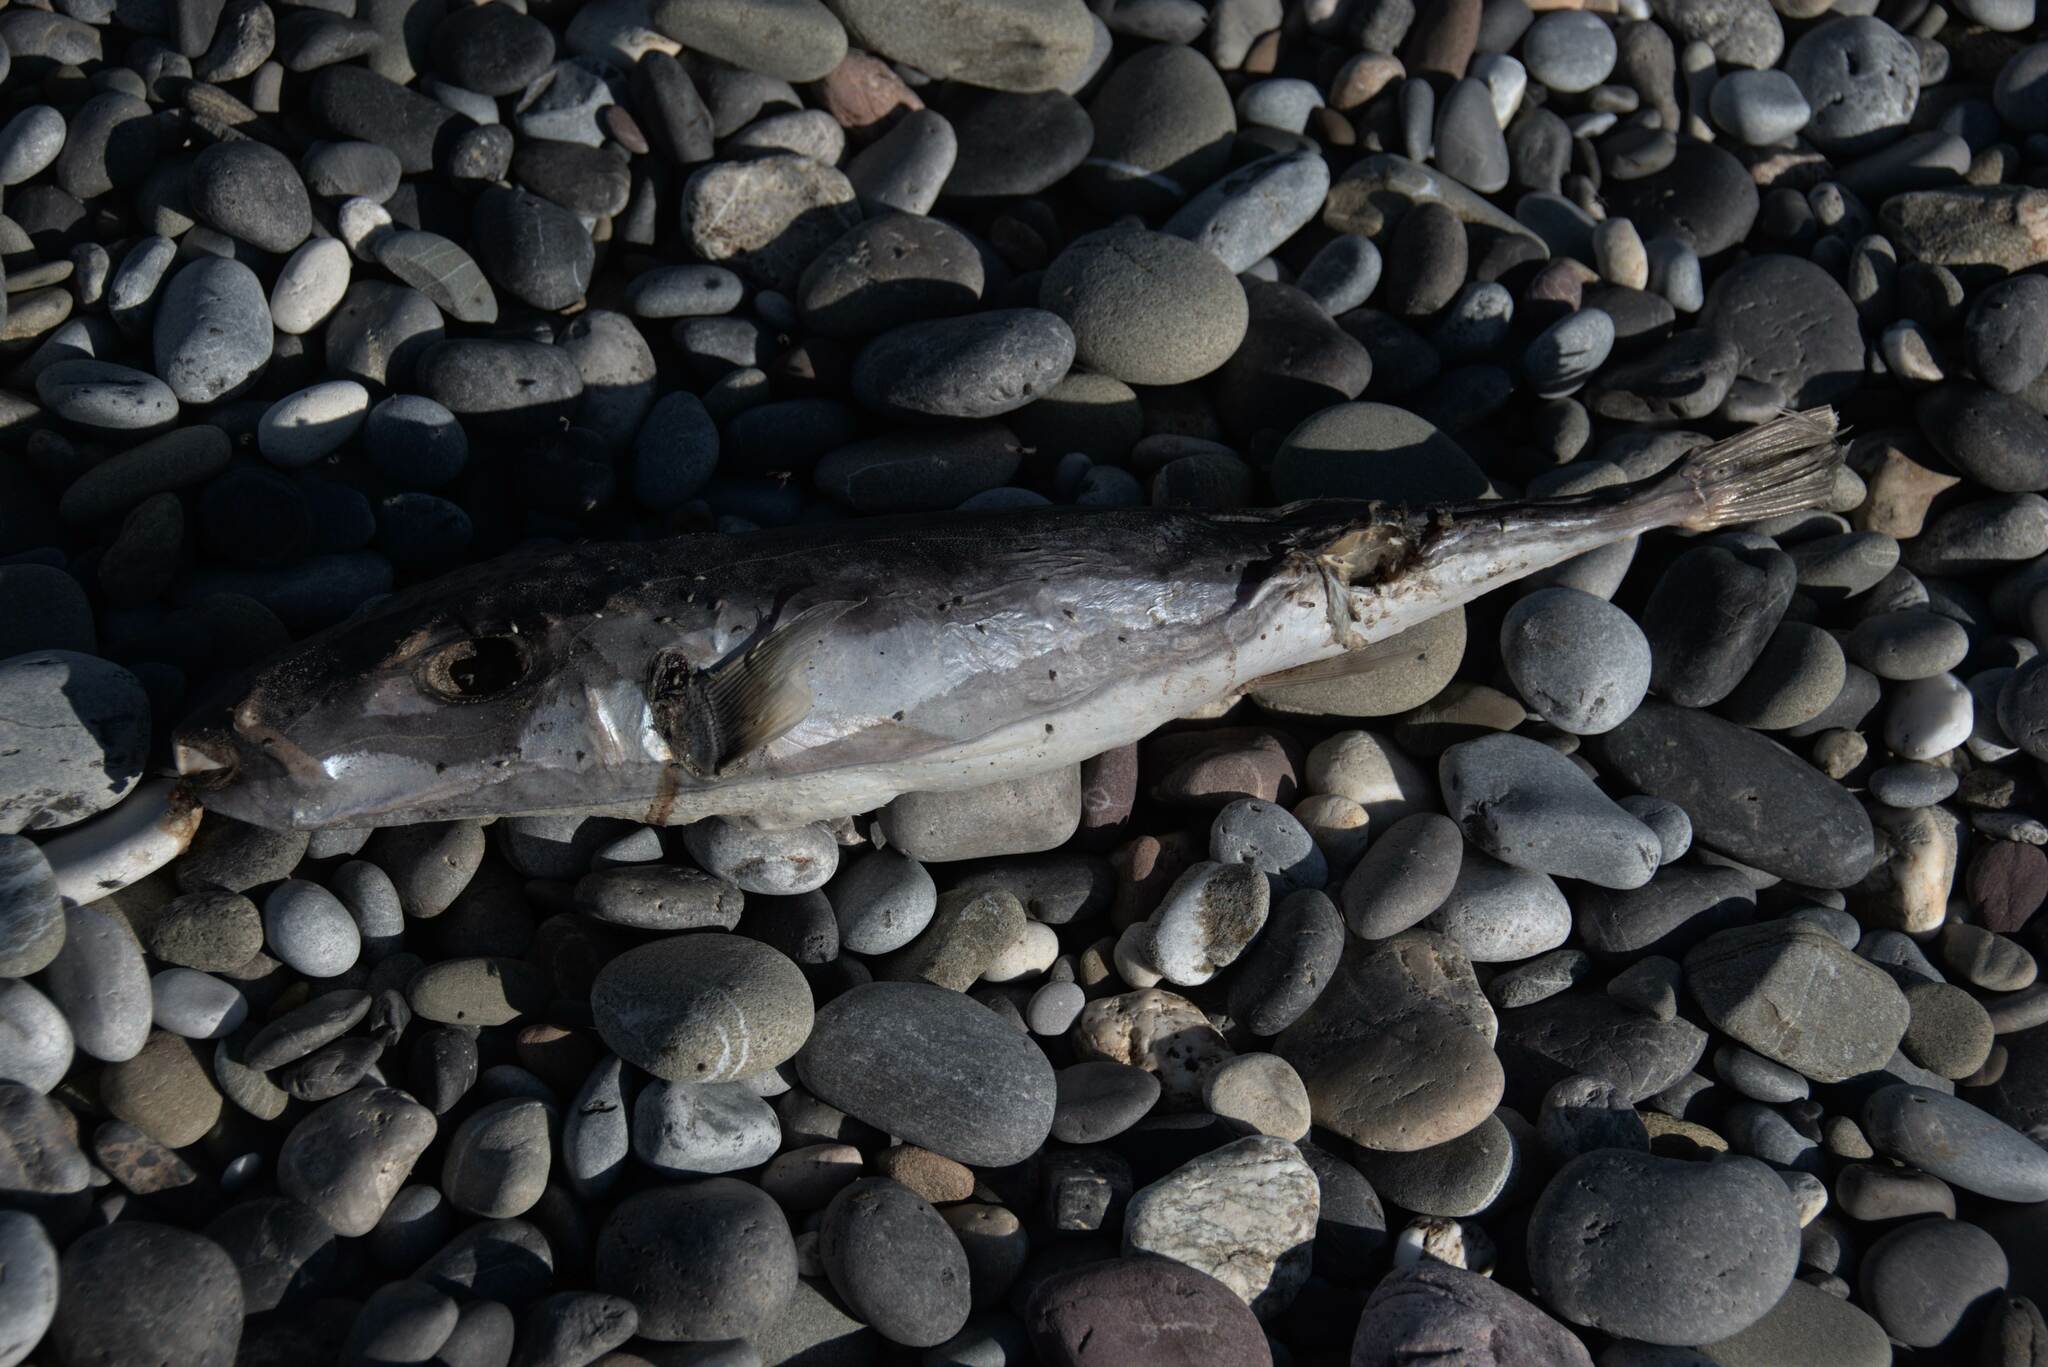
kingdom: Animalia
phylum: Chordata
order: Tetraodontiformes
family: Tetraodontidae
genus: Lagocephalus
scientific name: Lagocephalus
